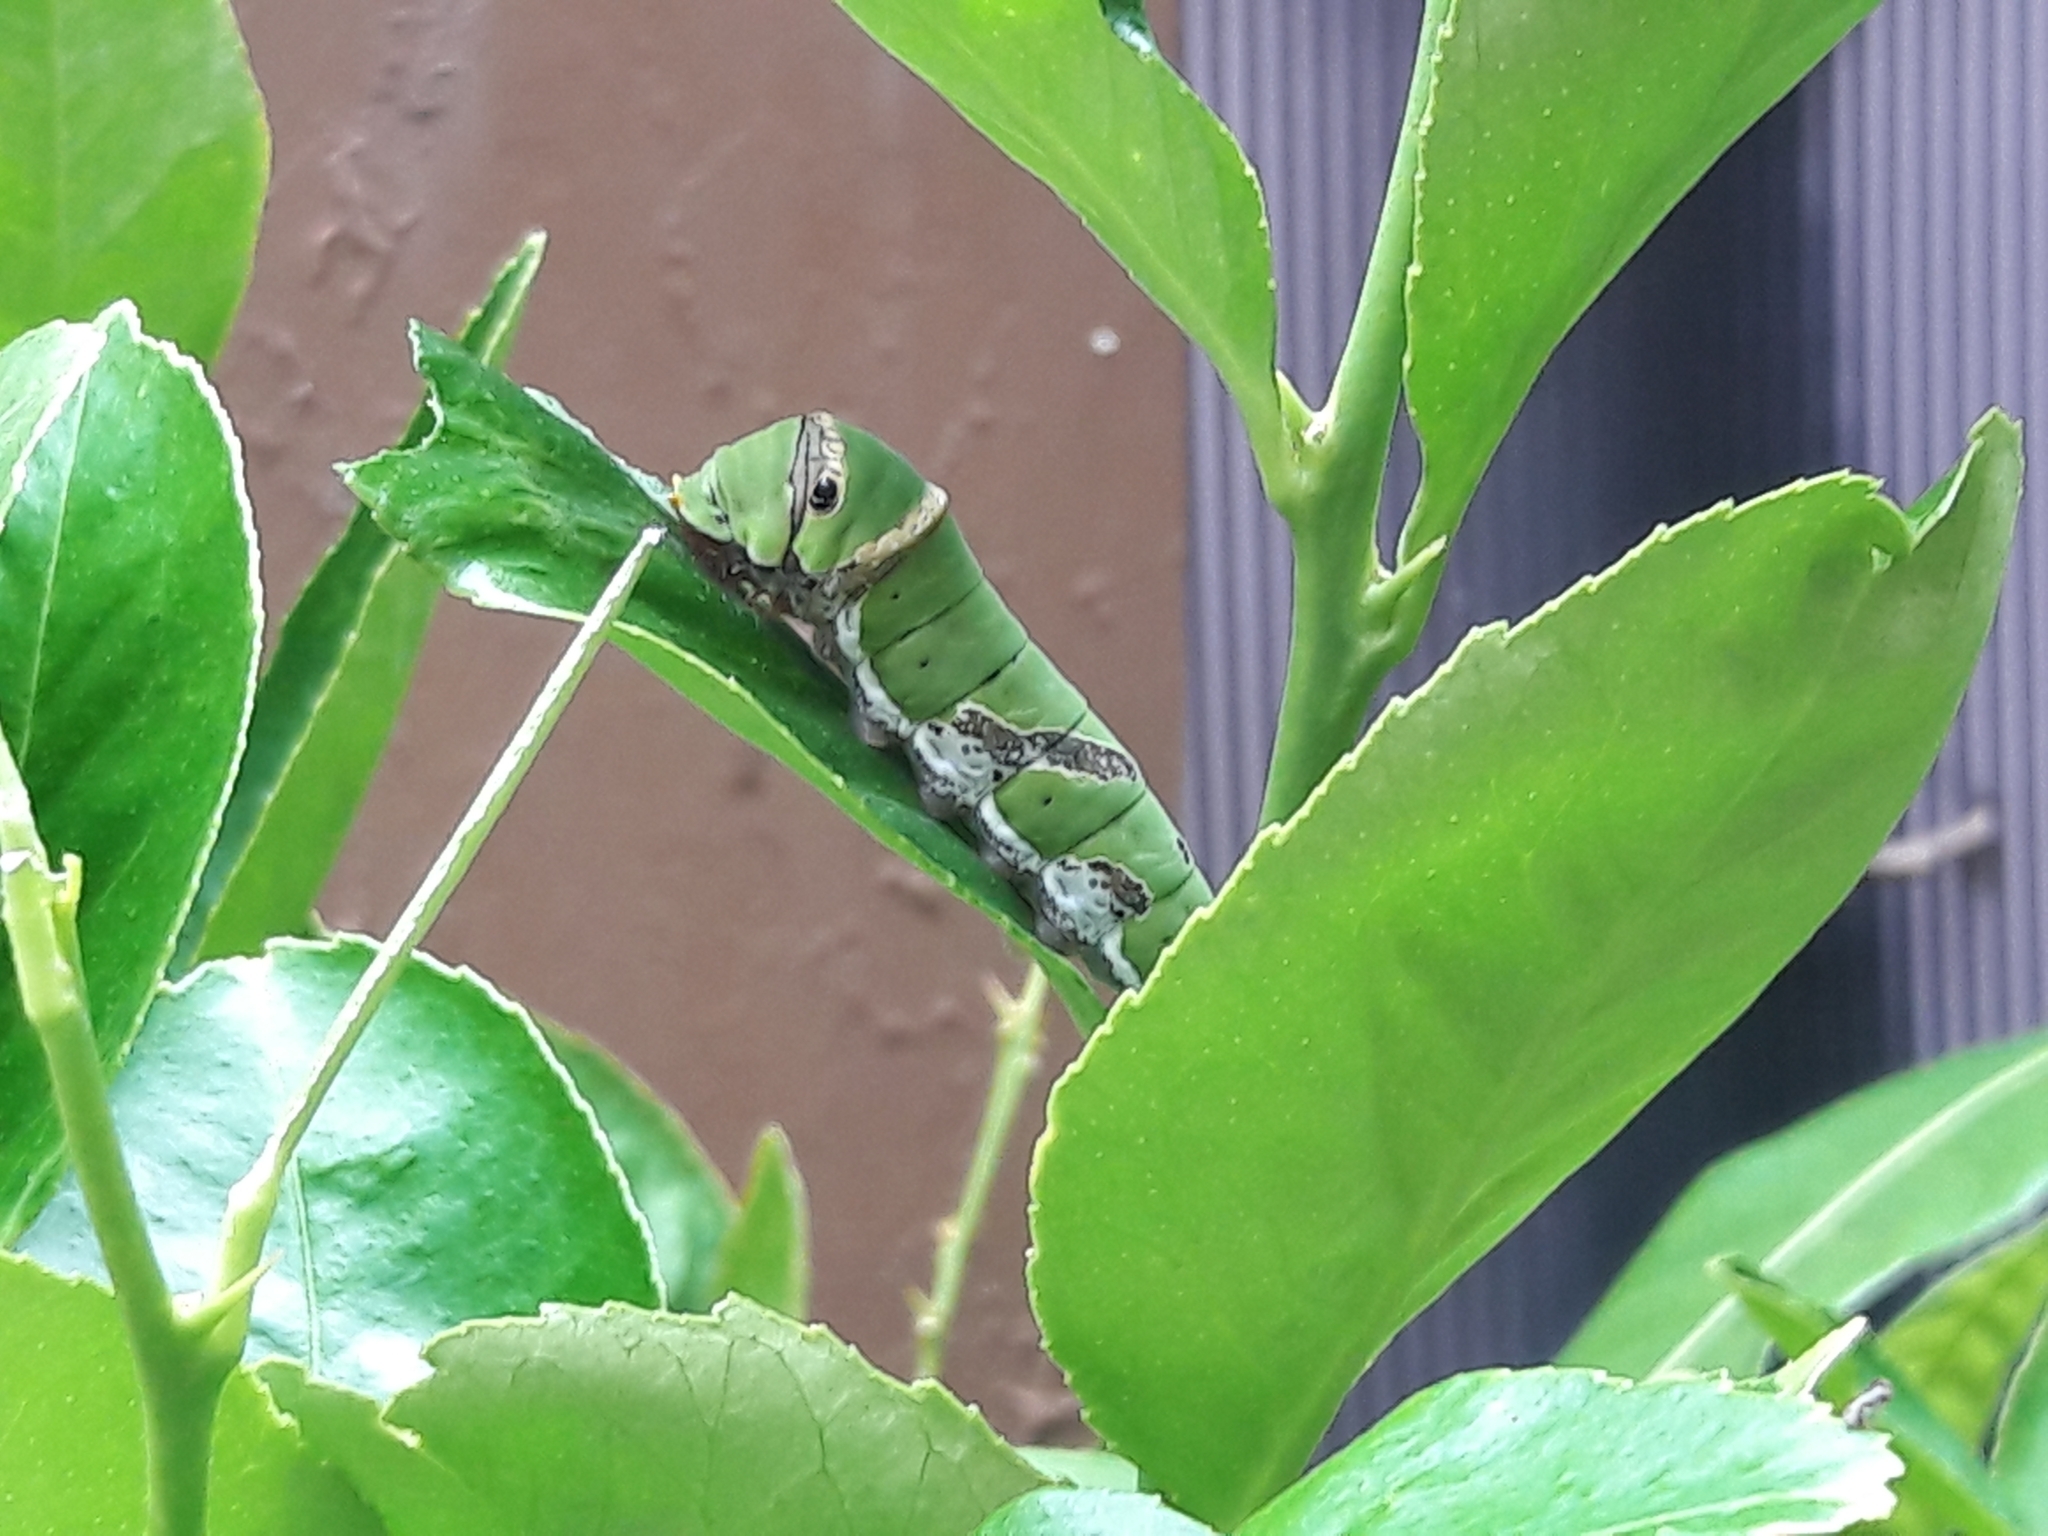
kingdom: Animalia
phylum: Arthropoda
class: Insecta
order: Lepidoptera
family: Papilionidae
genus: Papilio
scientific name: Papilio demoleus
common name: Lime butterfly
